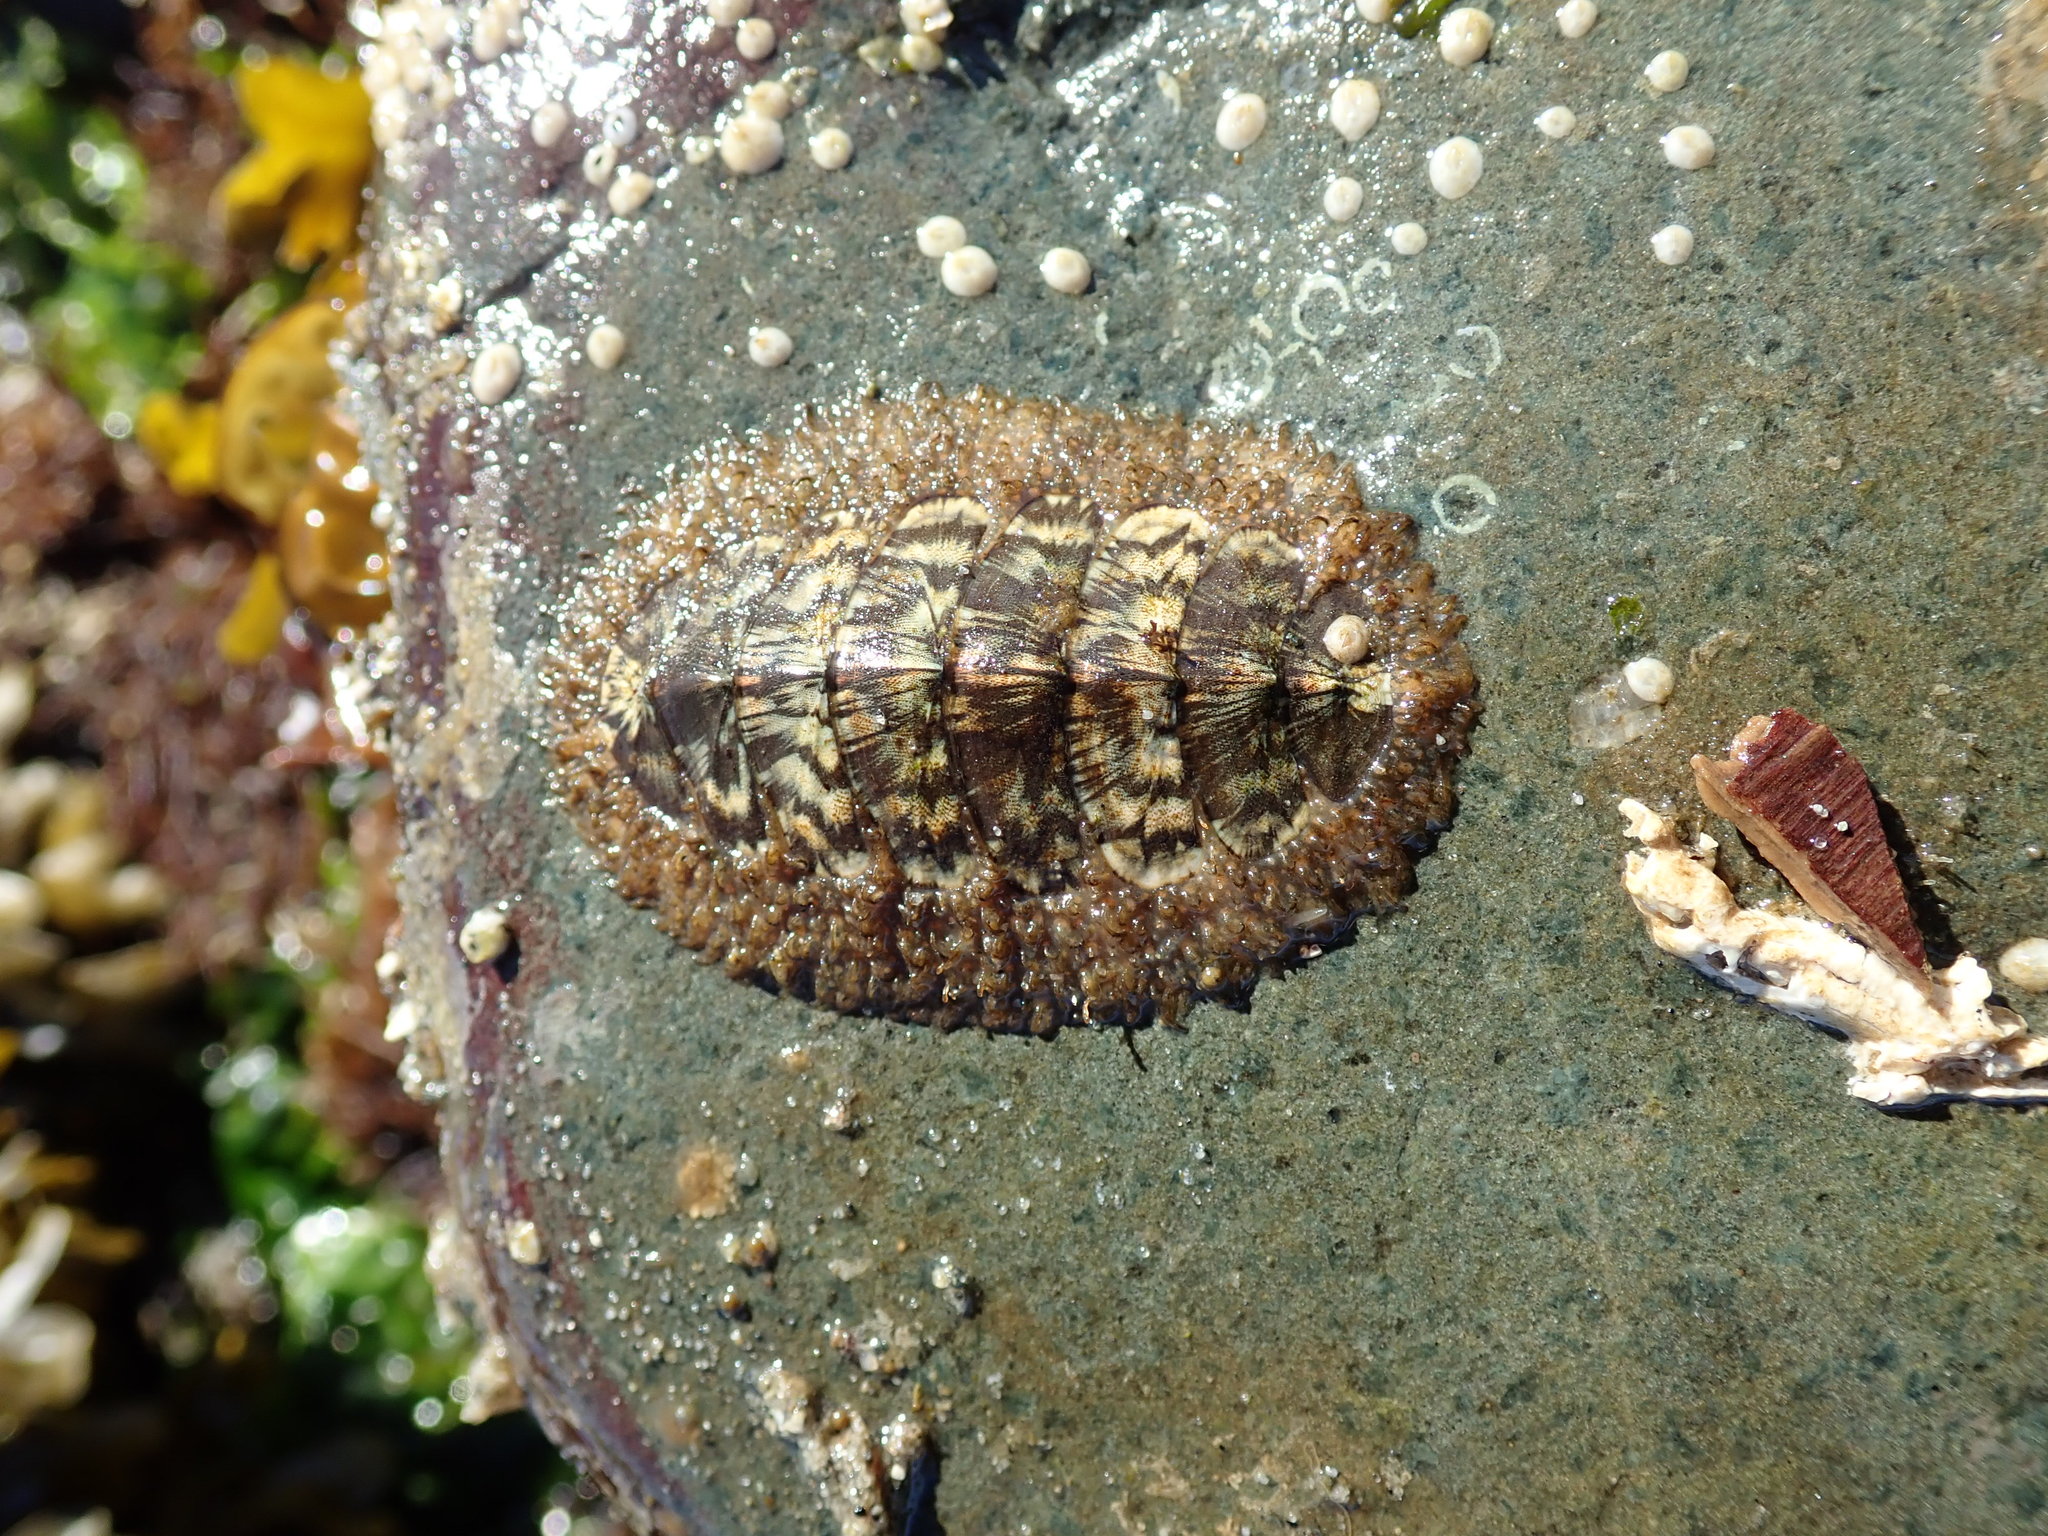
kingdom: Animalia
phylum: Mollusca
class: Polyplacophora
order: Chitonida
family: Mopaliidae
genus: Mopalia
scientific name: Mopalia lignosa
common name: Woody chiton
